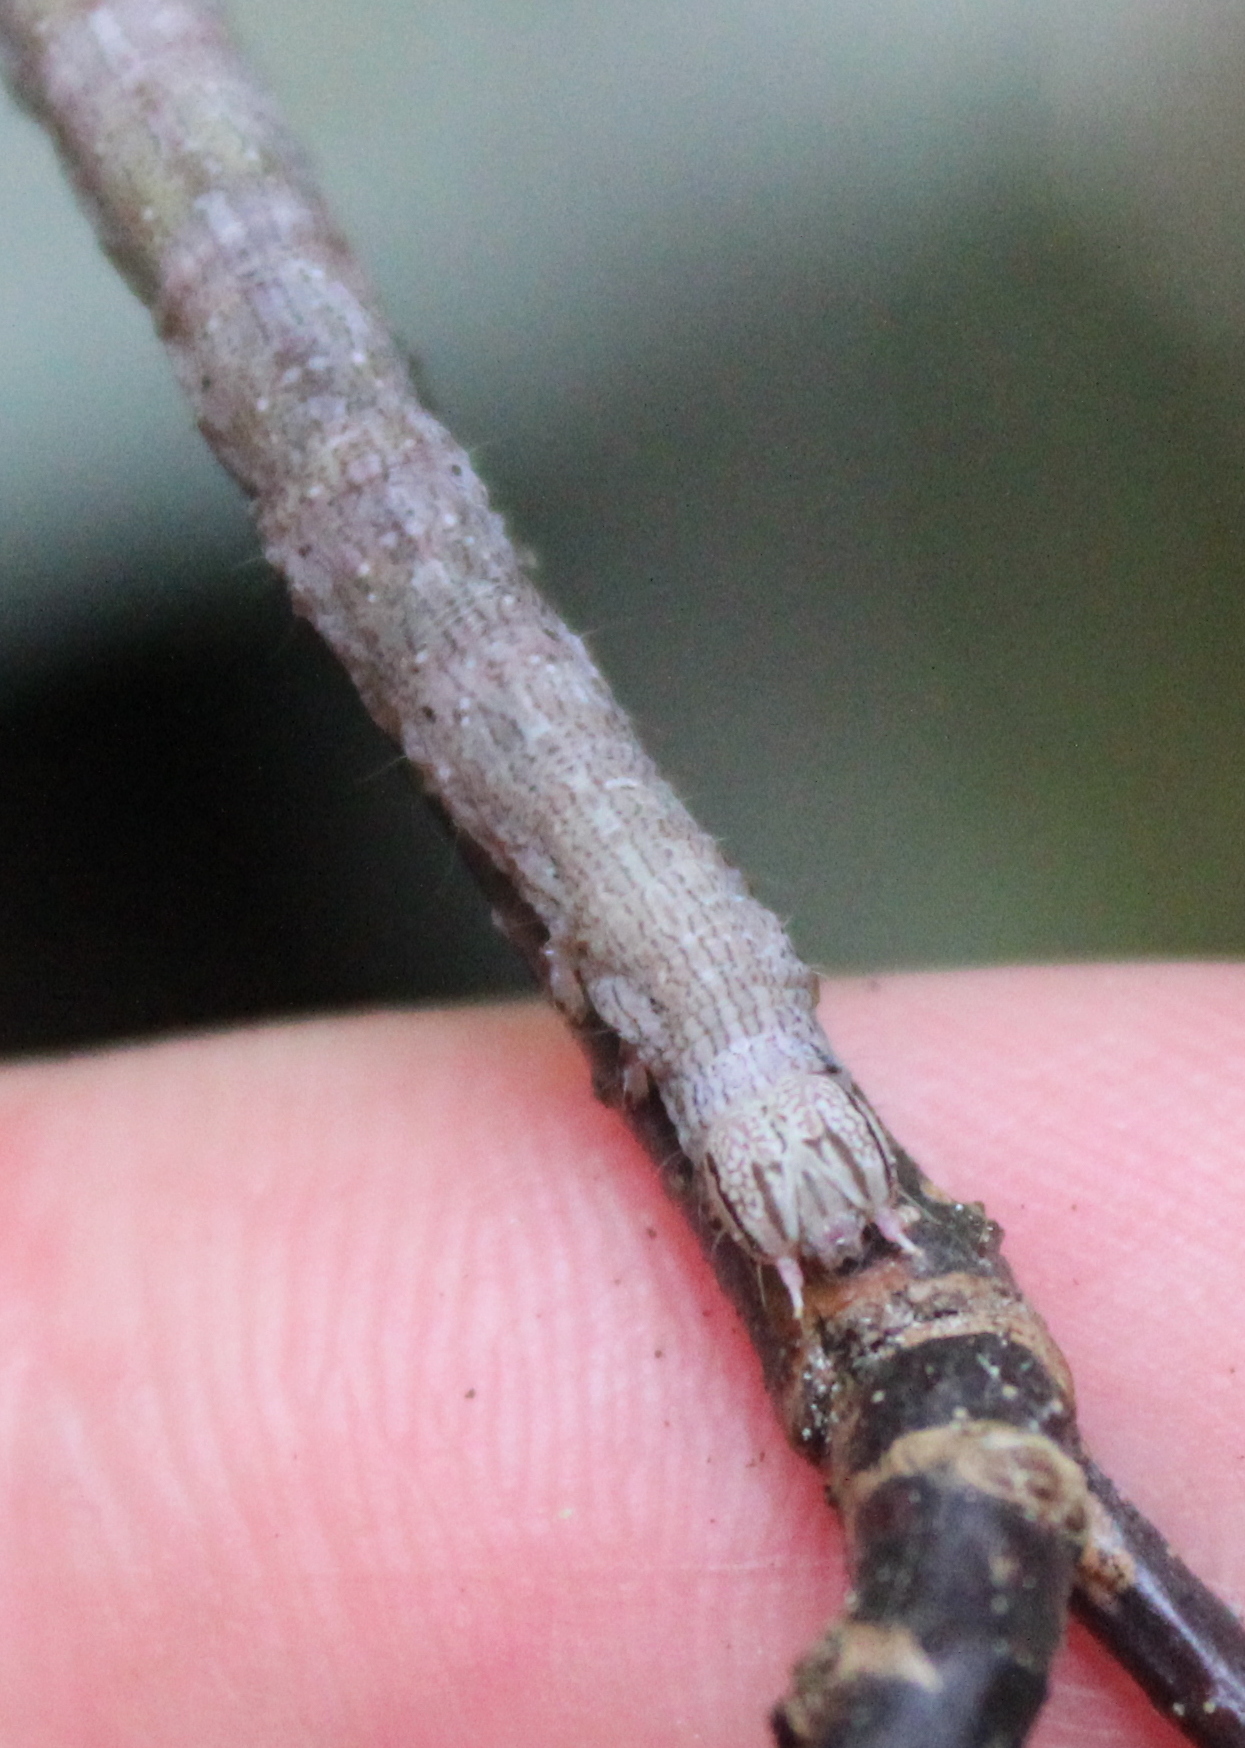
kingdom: Animalia
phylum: Arthropoda
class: Insecta
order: Lepidoptera
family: Erebidae
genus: Parallelia
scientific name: Parallelia bistriaris
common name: Maple looper moth
